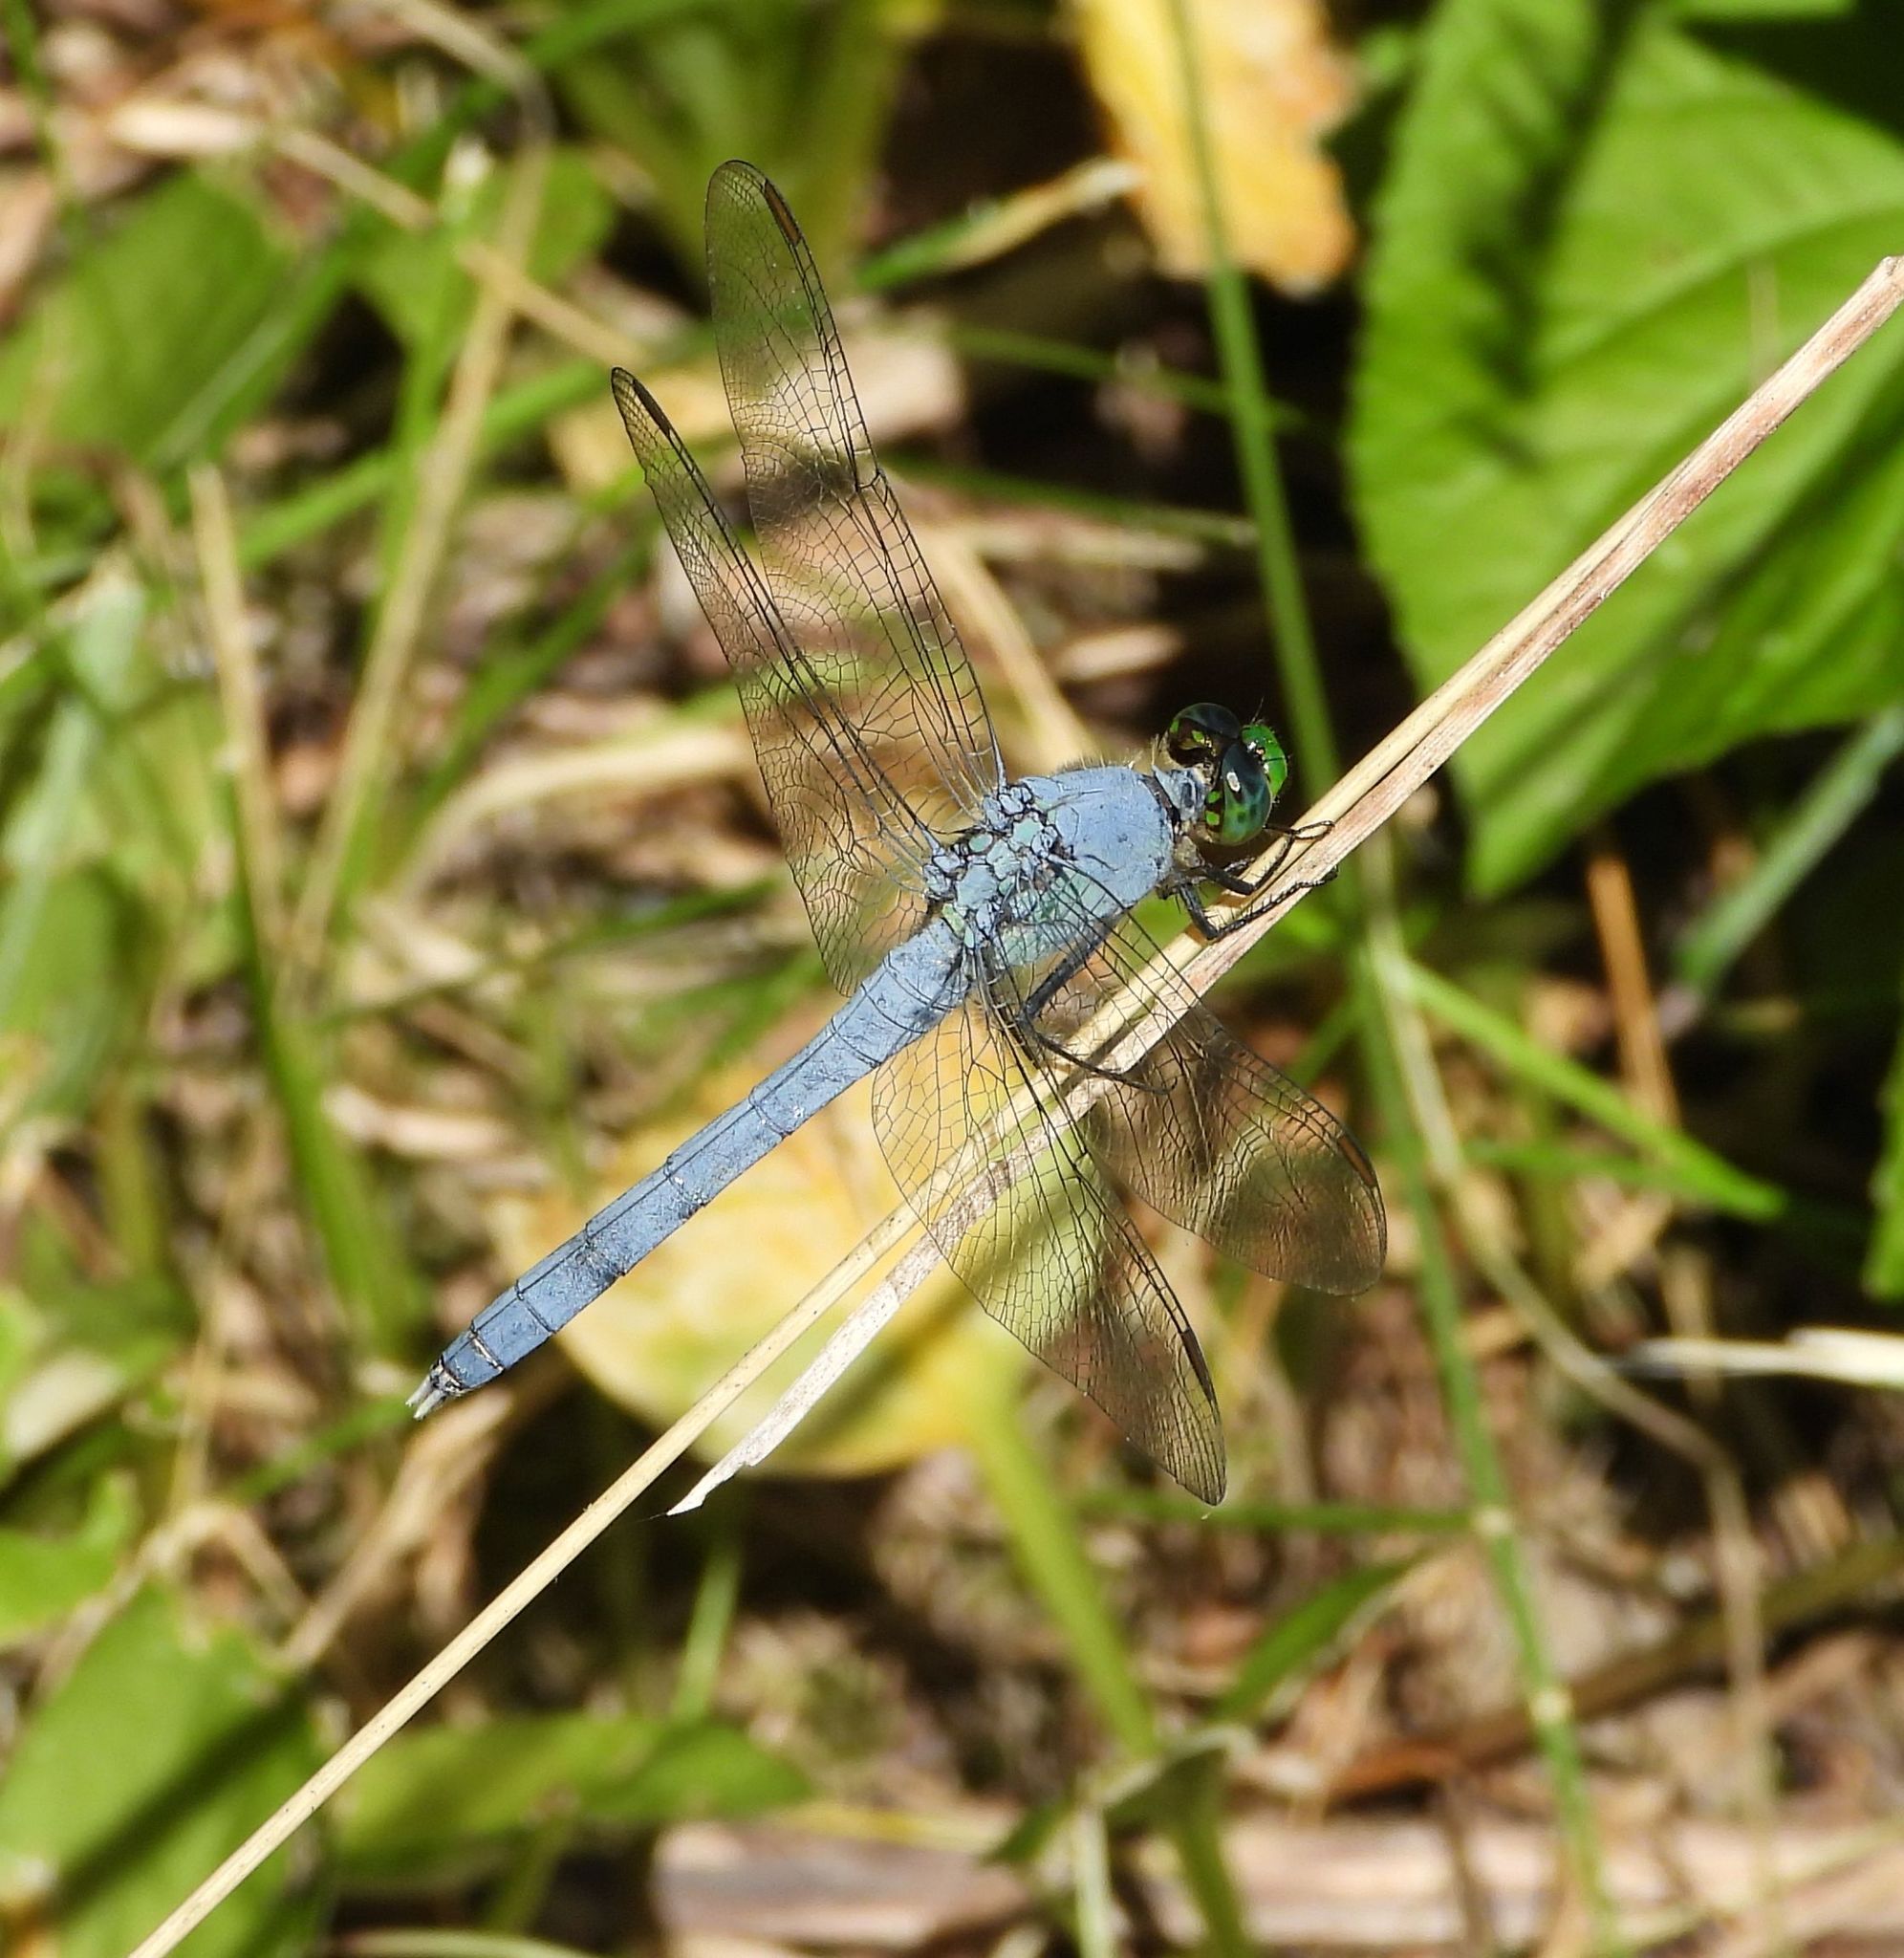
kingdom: Animalia
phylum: Arthropoda
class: Insecta
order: Odonata
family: Libellulidae
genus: Erythemis
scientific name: Erythemis simplicicollis
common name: Eastern pondhawk
